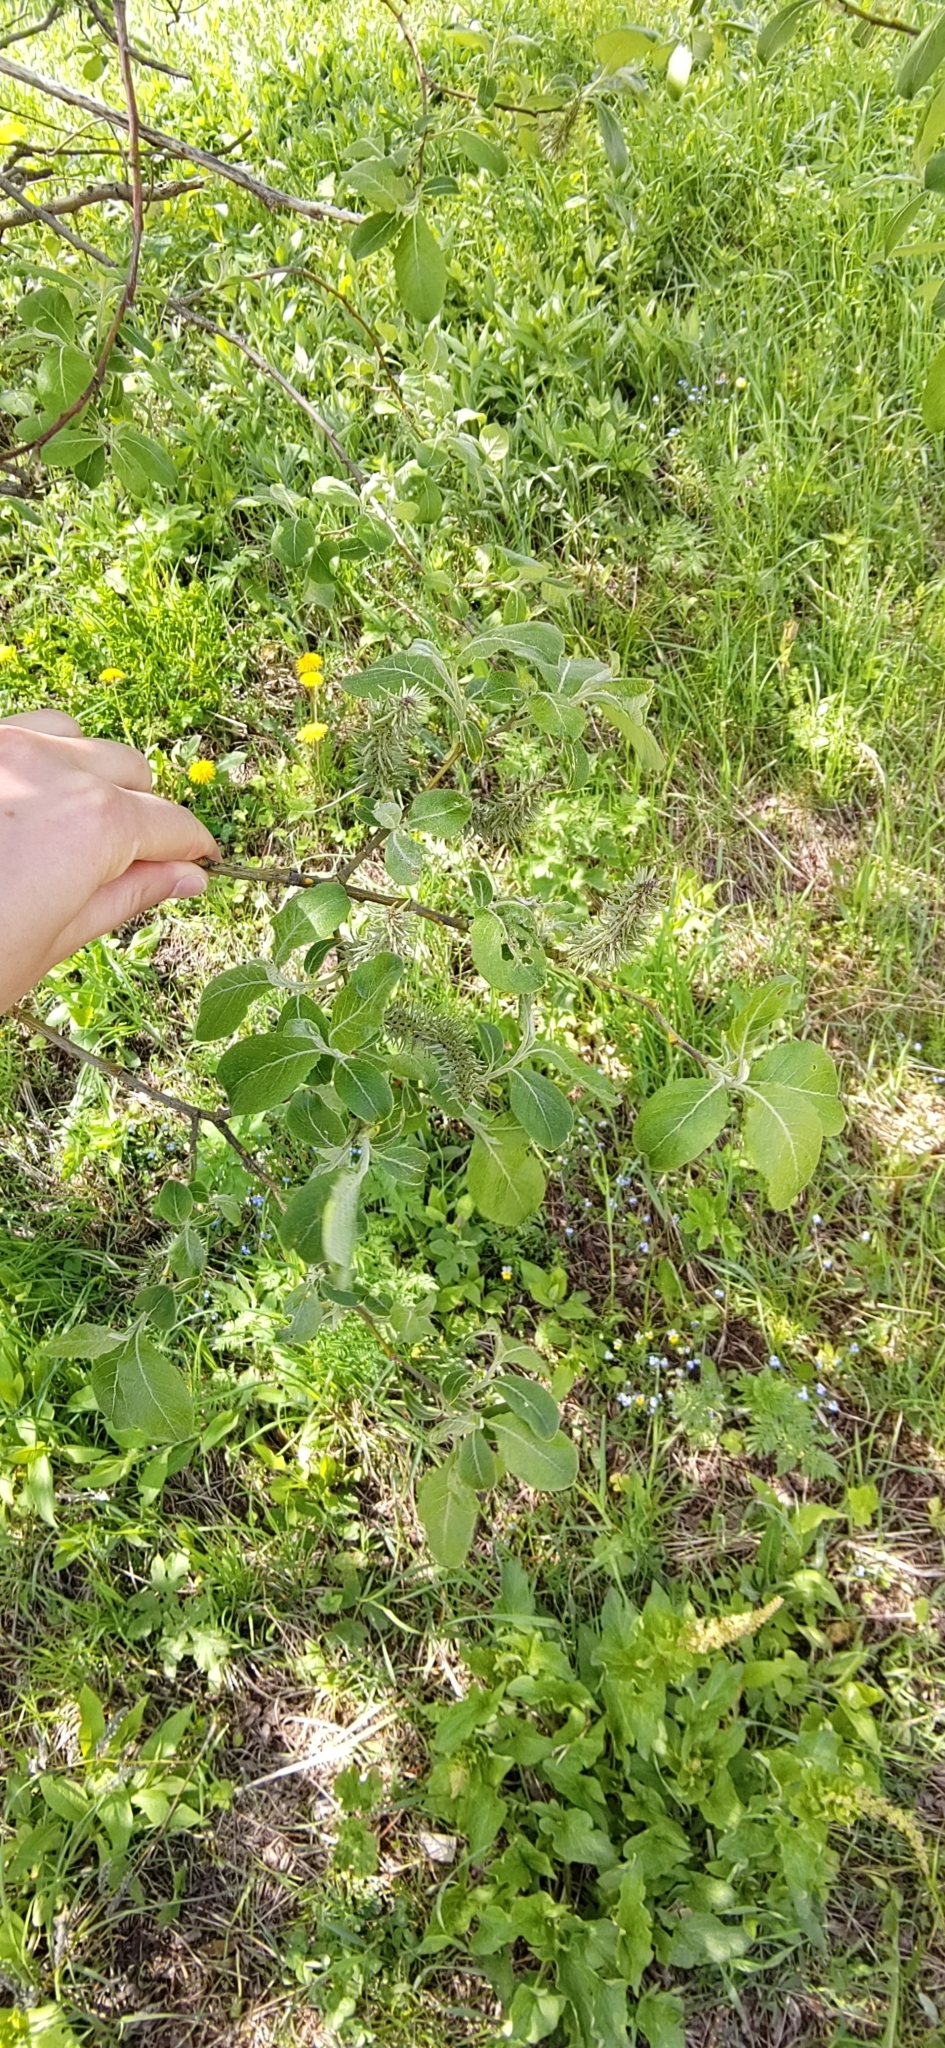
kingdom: Plantae
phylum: Tracheophyta
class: Magnoliopsida
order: Malpighiales
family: Salicaceae
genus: Salix
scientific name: Salix caprea
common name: Goat willow
